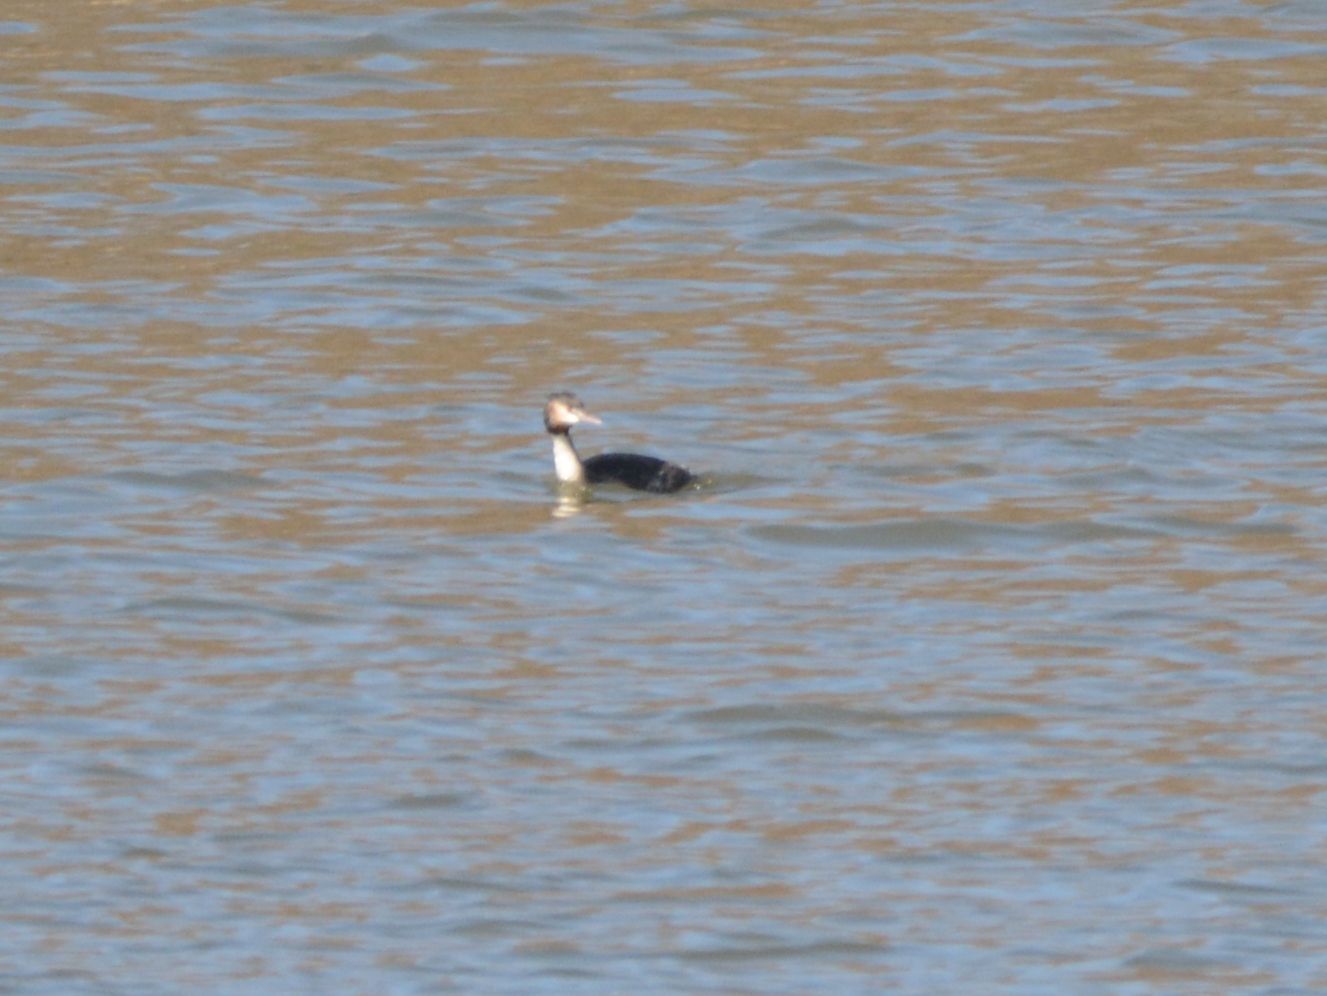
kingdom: Animalia
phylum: Chordata
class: Aves
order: Podicipediformes
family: Podicipedidae
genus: Podiceps
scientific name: Podiceps cristatus
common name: Great crested grebe
